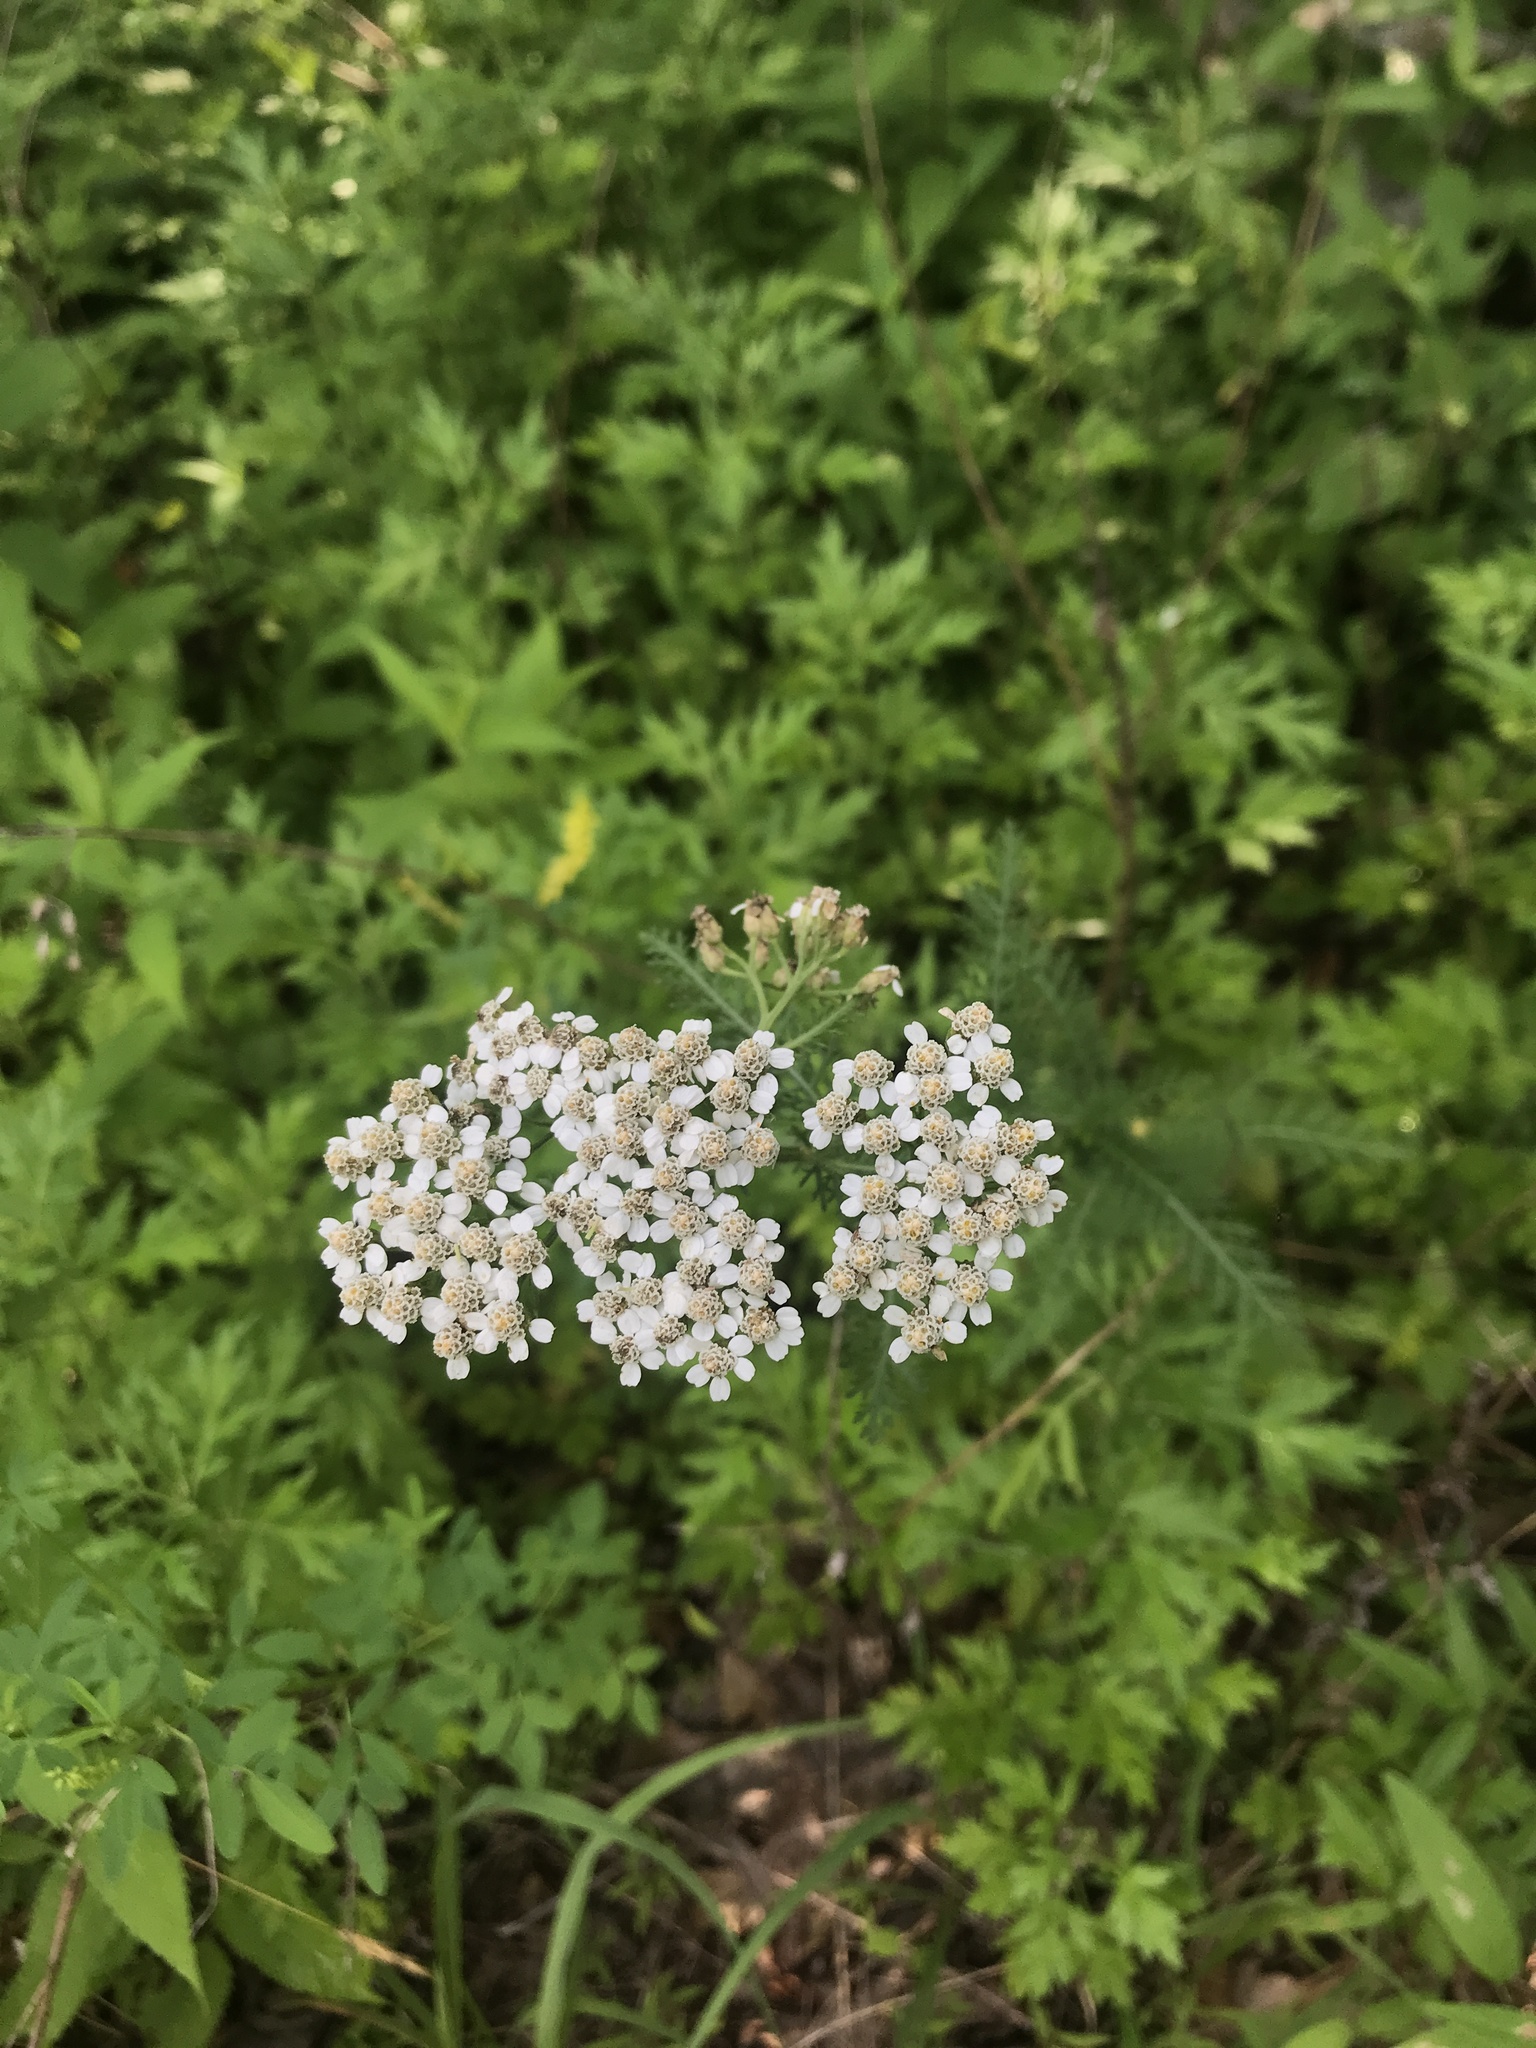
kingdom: Plantae
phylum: Tracheophyta
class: Magnoliopsida
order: Asterales
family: Asteraceae
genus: Achillea
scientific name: Achillea millefolium
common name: Yarrow
